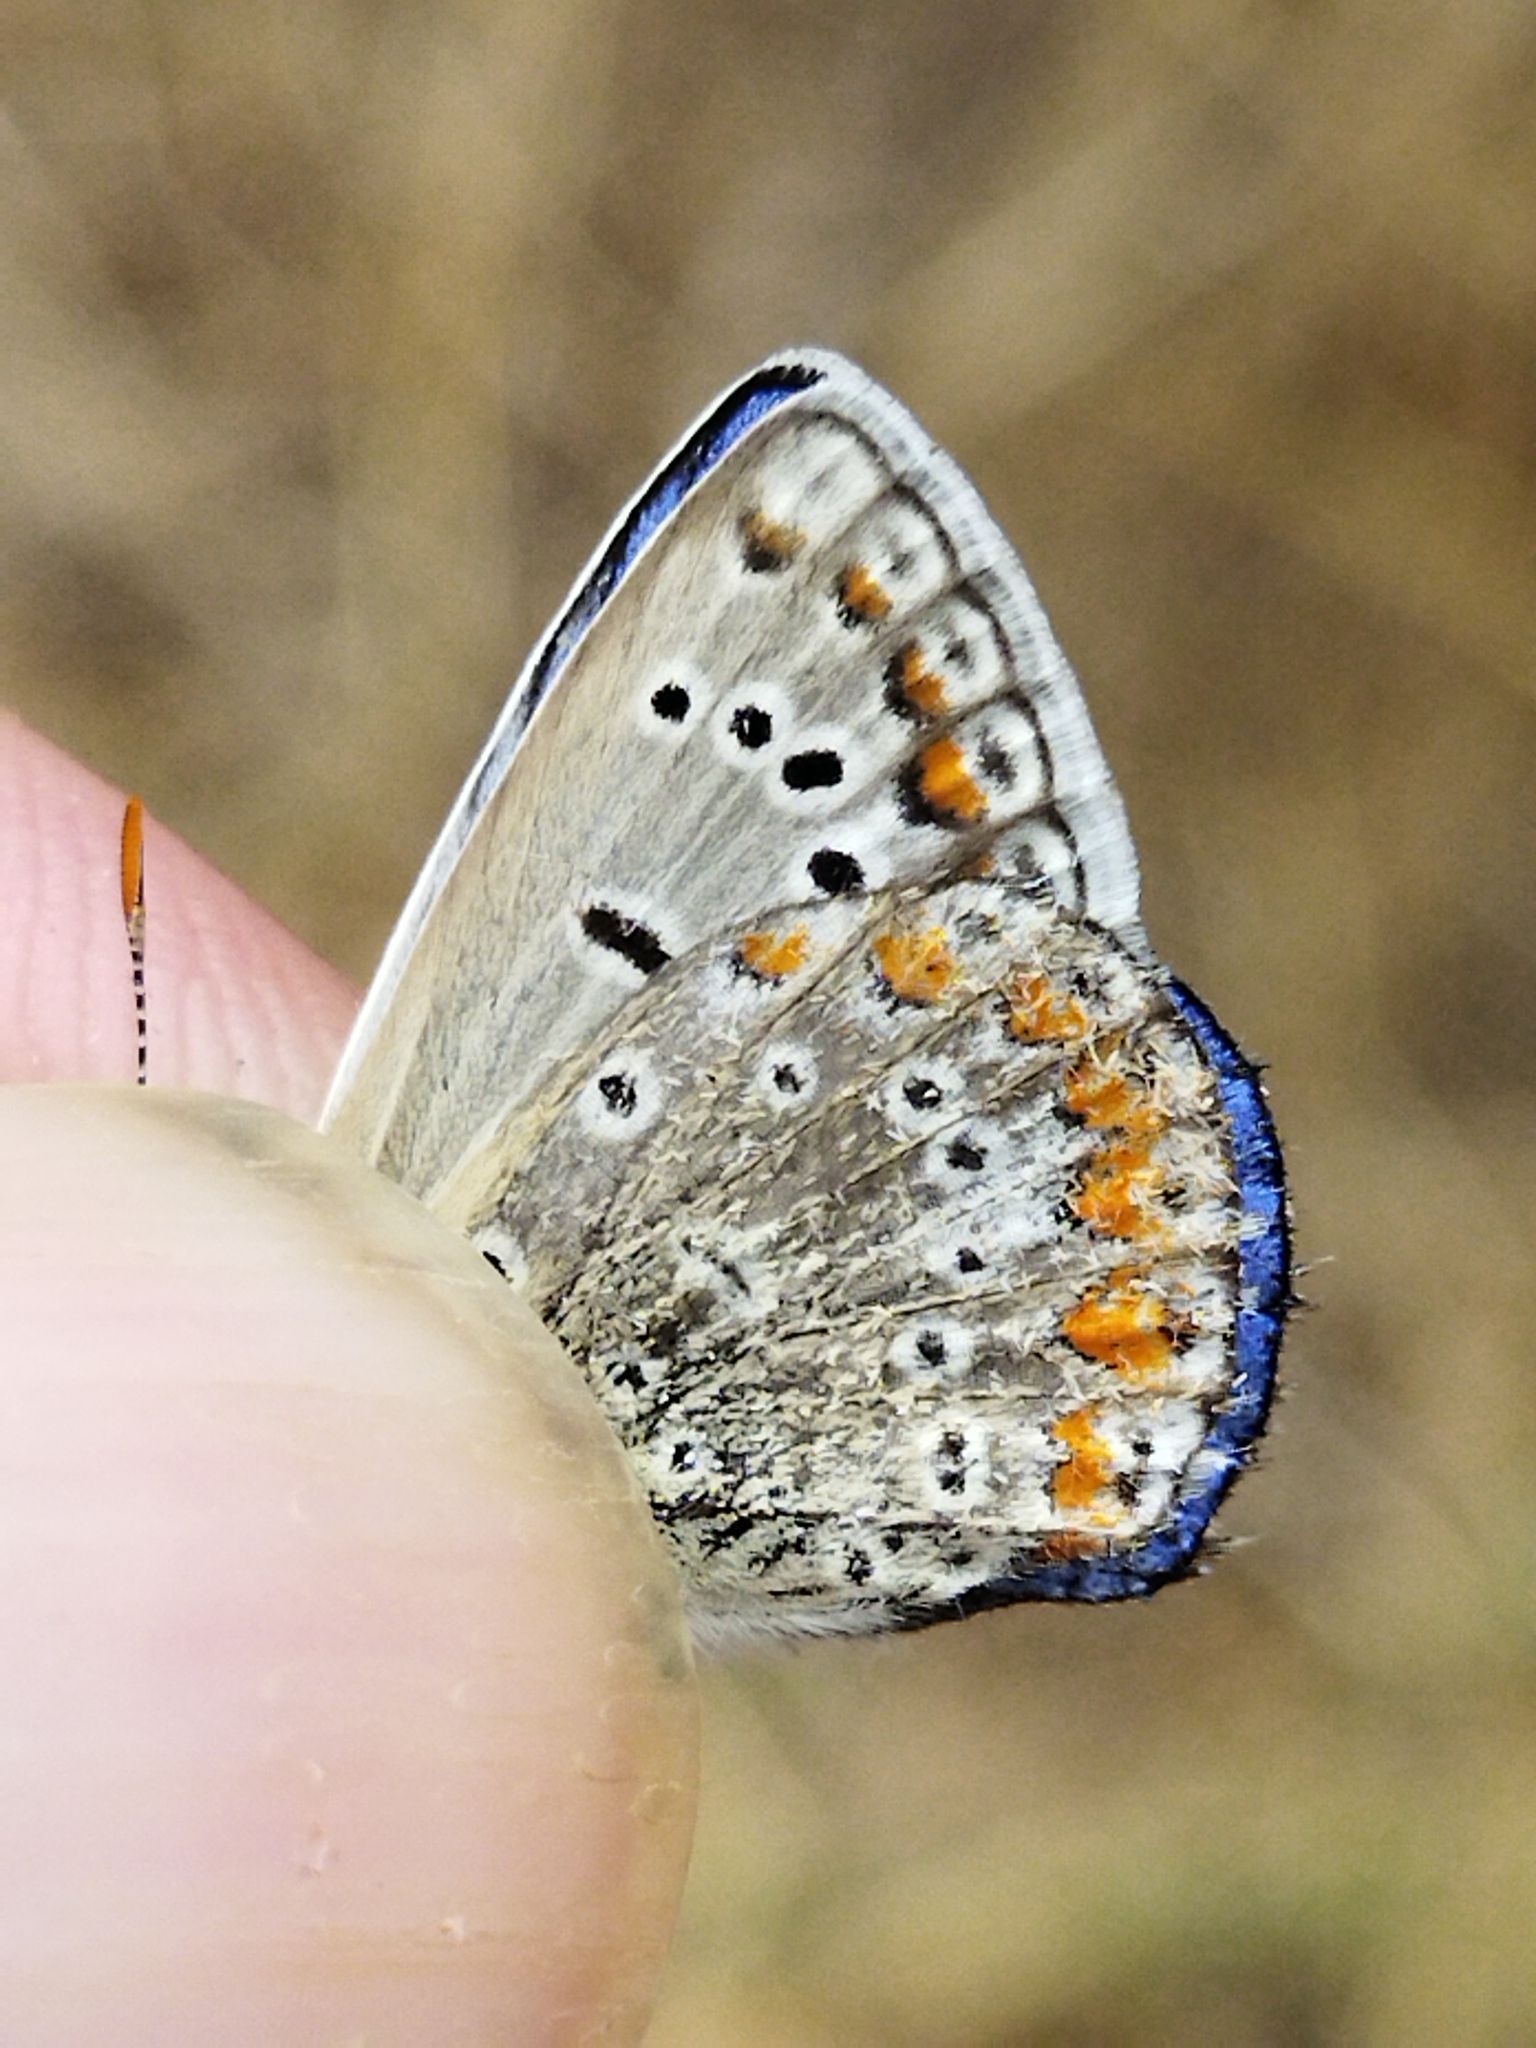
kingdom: Animalia
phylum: Arthropoda
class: Insecta
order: Lepidoptera
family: Lycaenidae
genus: Polyommatus
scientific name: Polyommatus icarus
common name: Common blue
